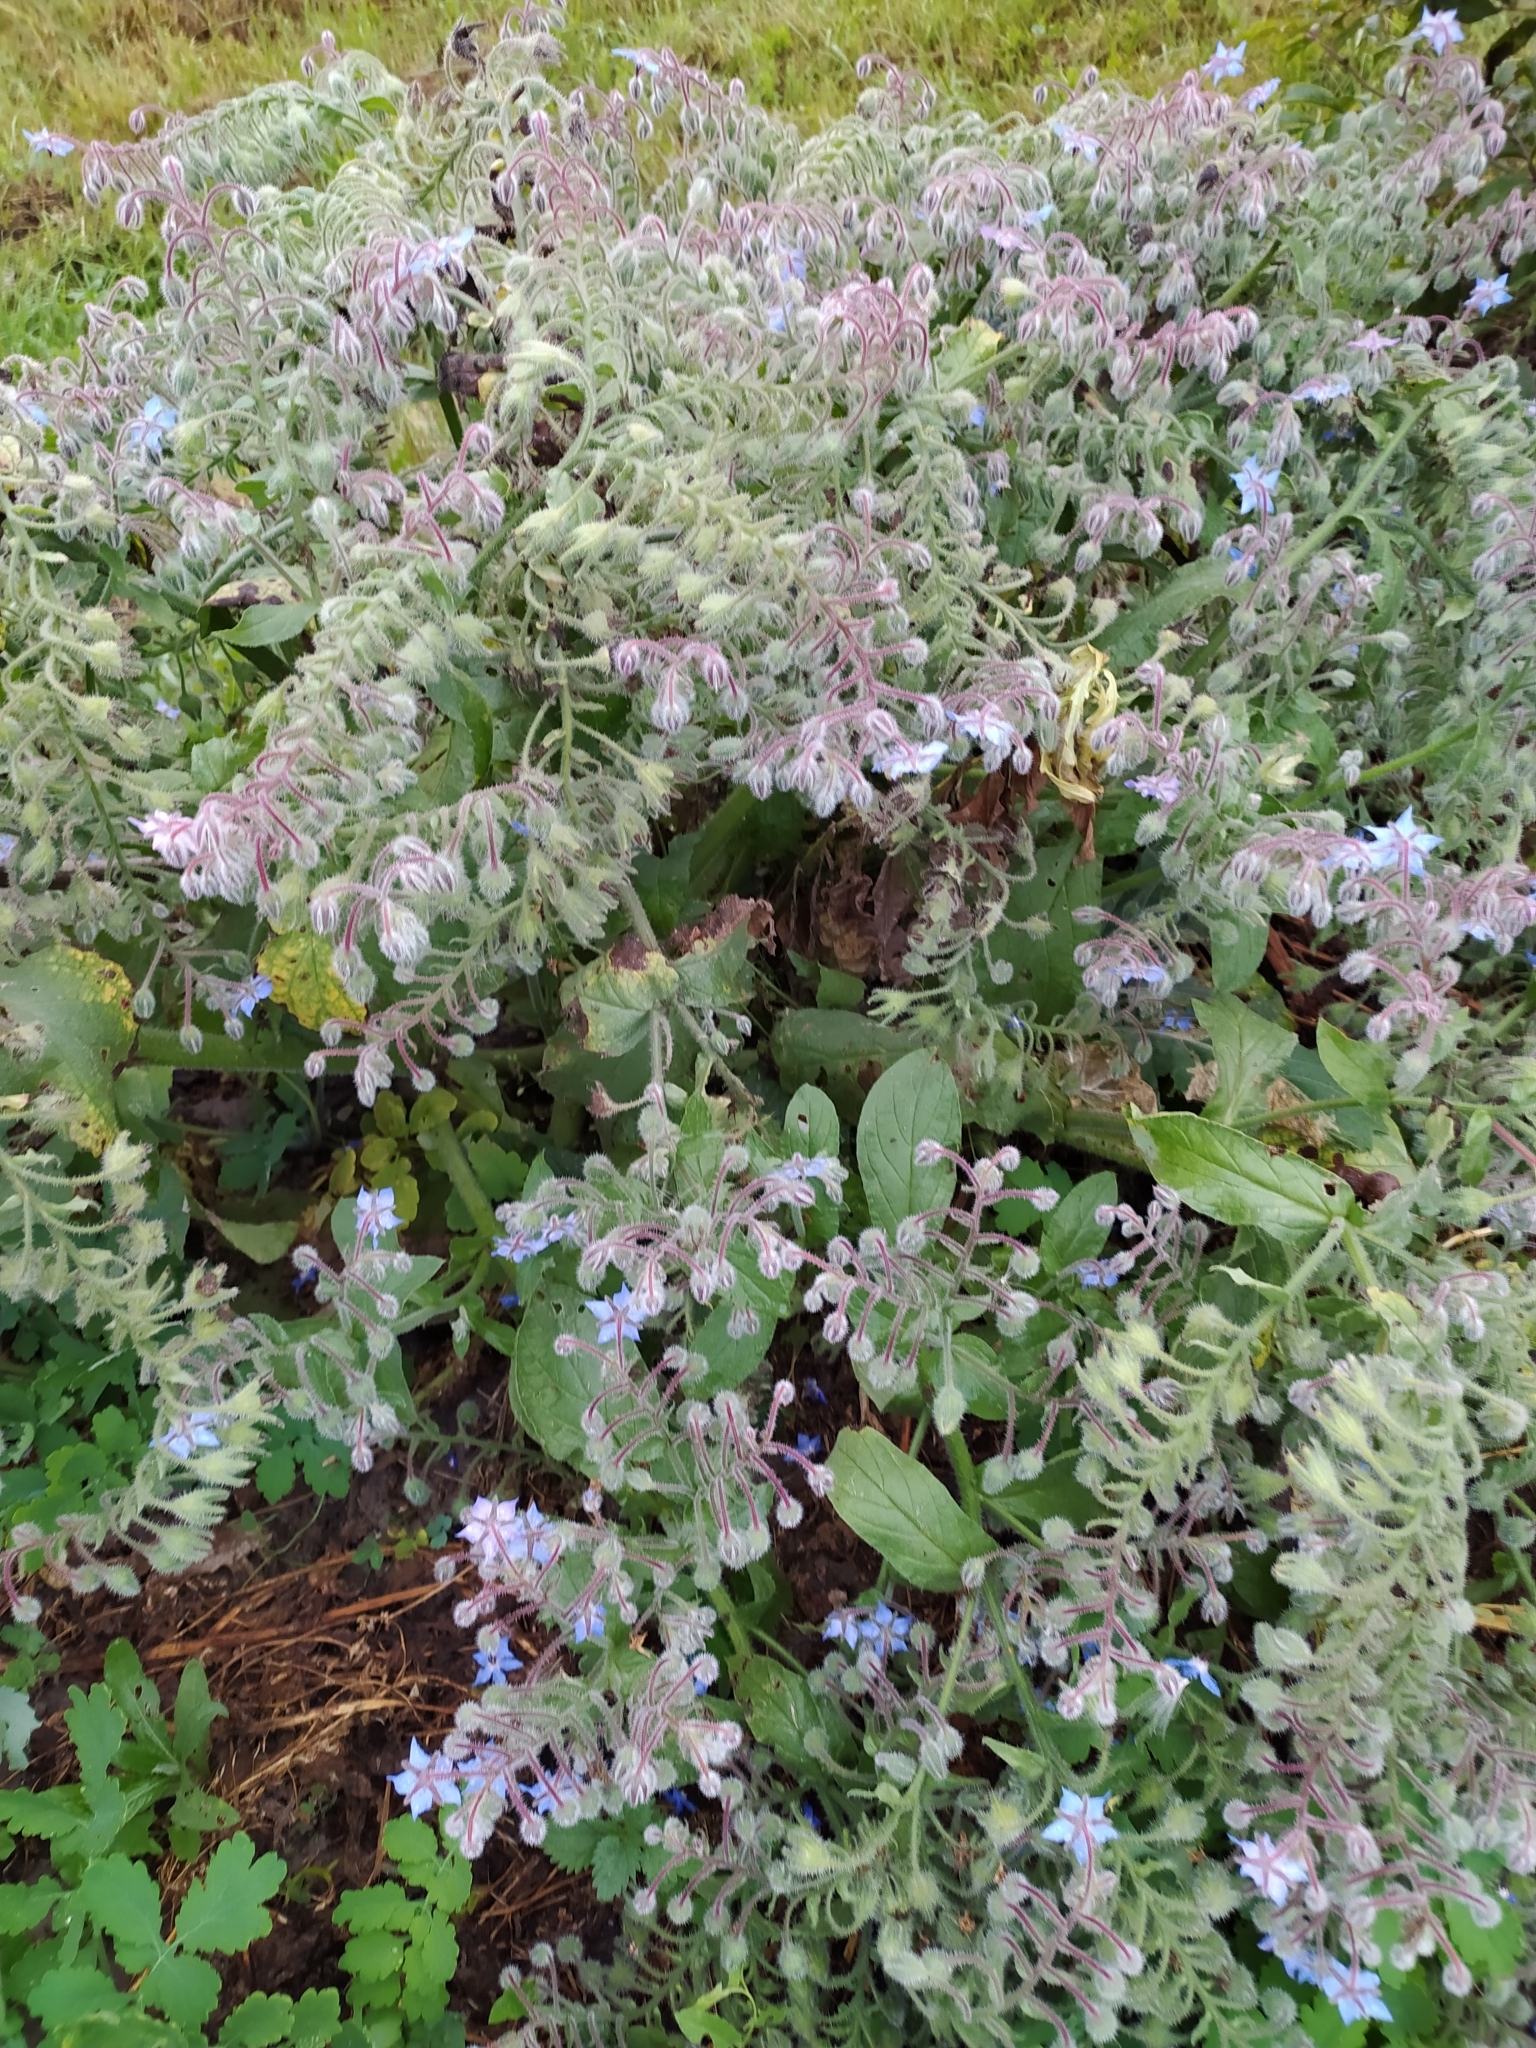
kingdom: Plantae
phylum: Tracheophyta
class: Magnoliopsida
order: Boraginales
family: Boraginaceae
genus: Borago
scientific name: Borago officinalis
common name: Borage
